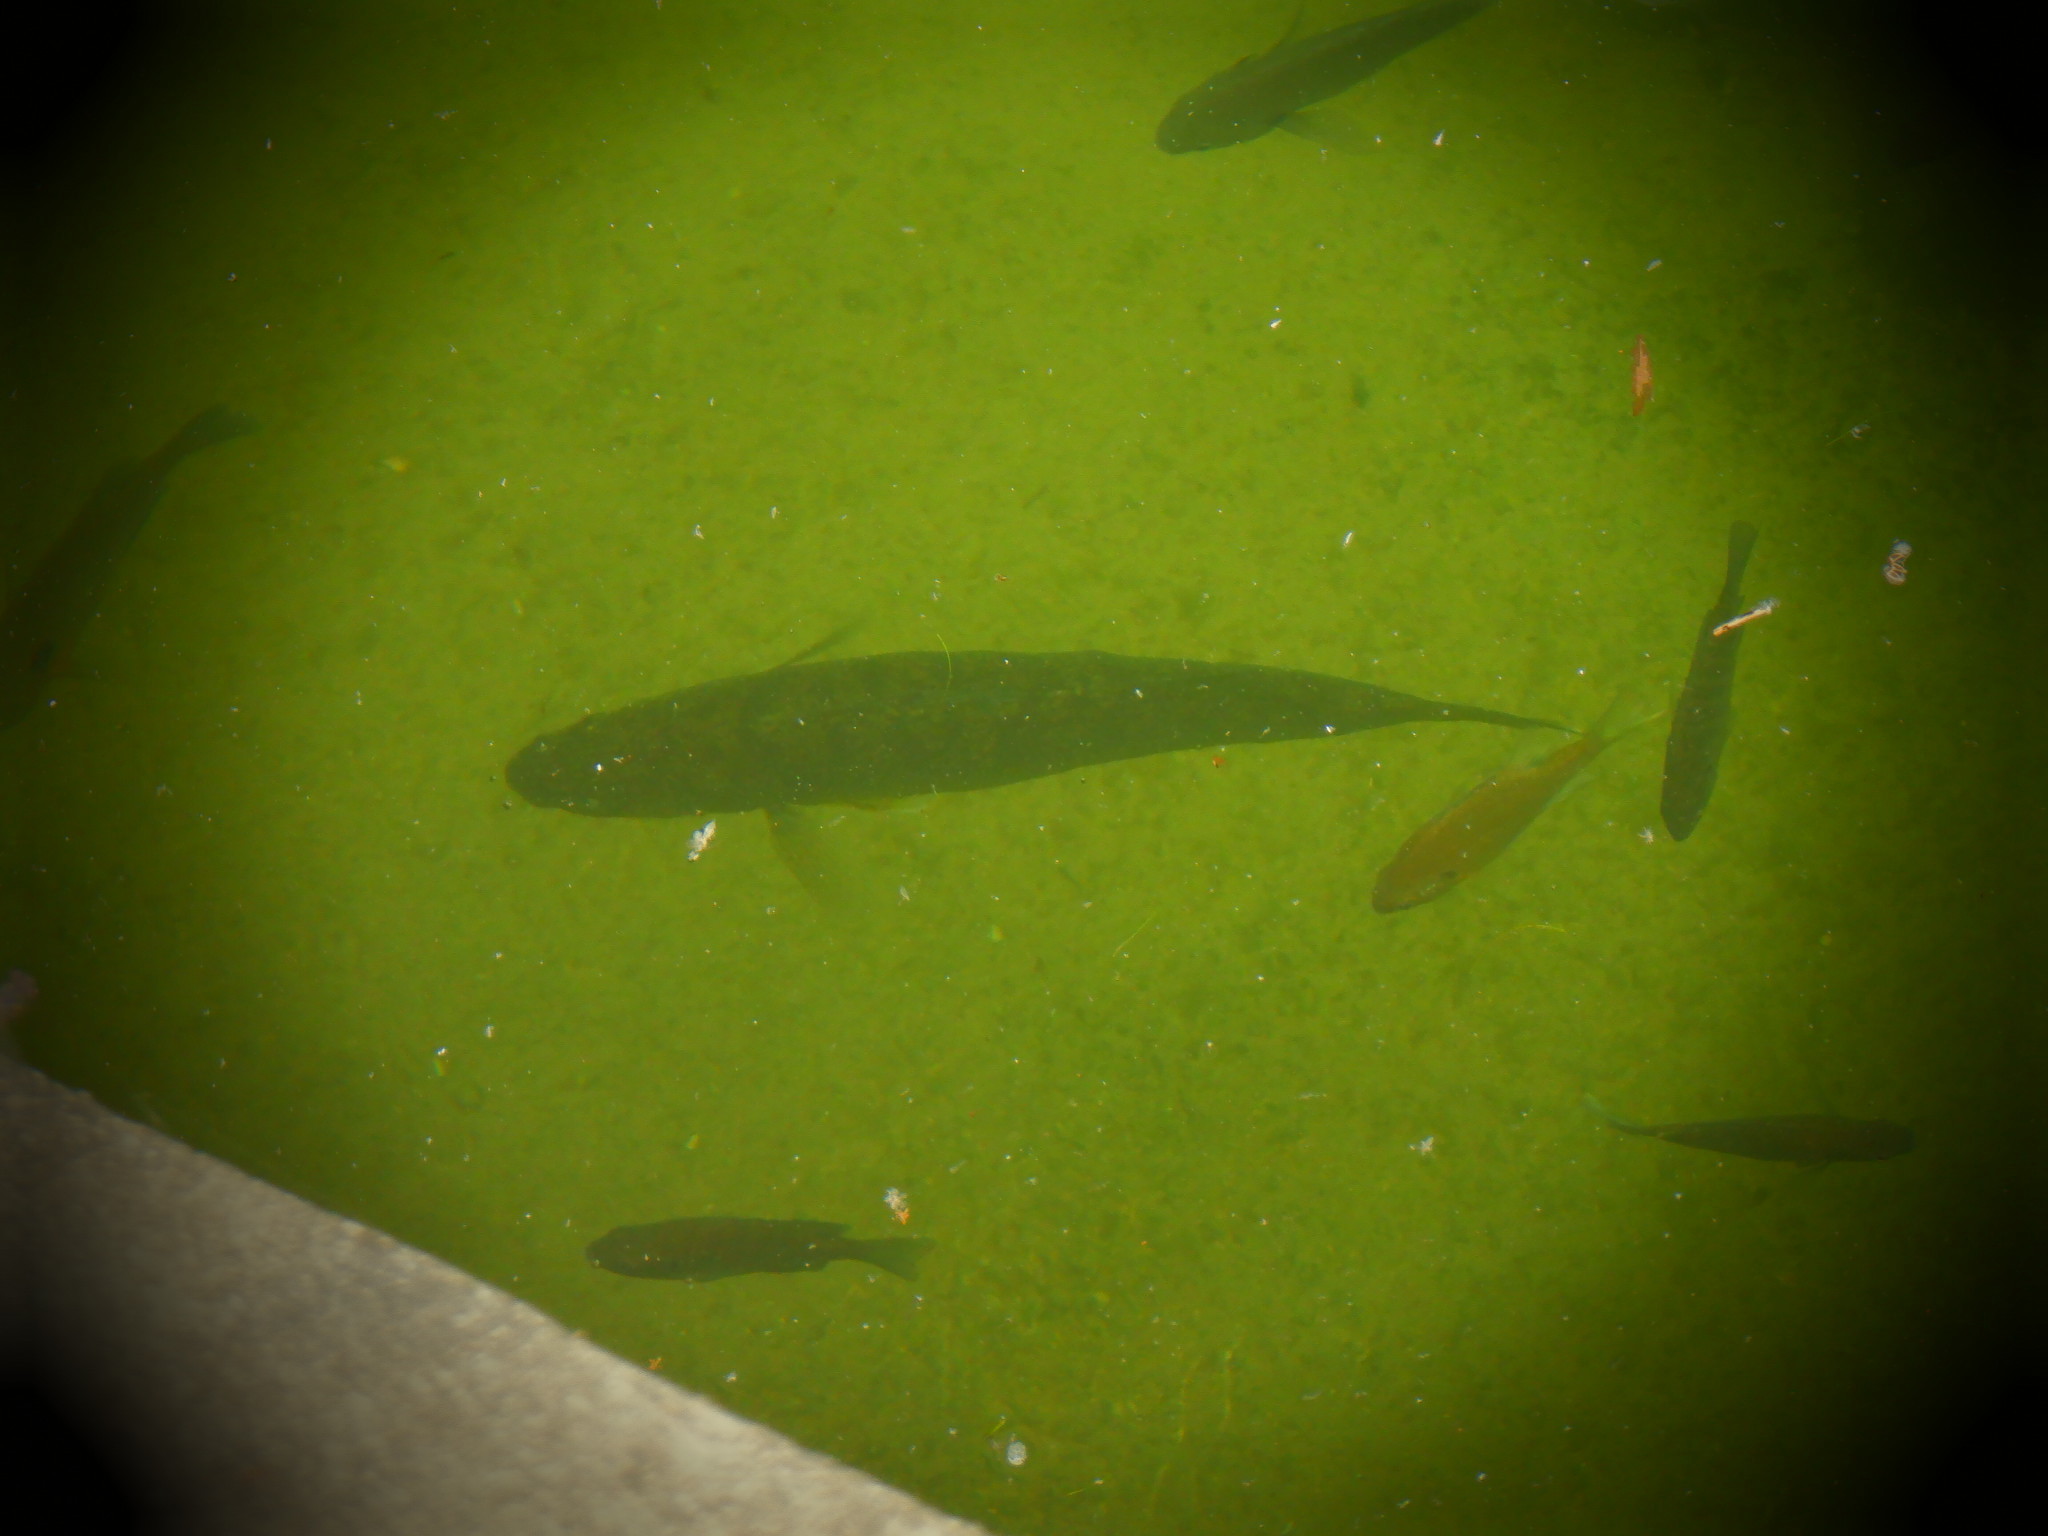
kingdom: Animalia
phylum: Chordata
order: Perciformes
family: Percidae
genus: Sander
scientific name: Sander vitreus
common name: Walleye
